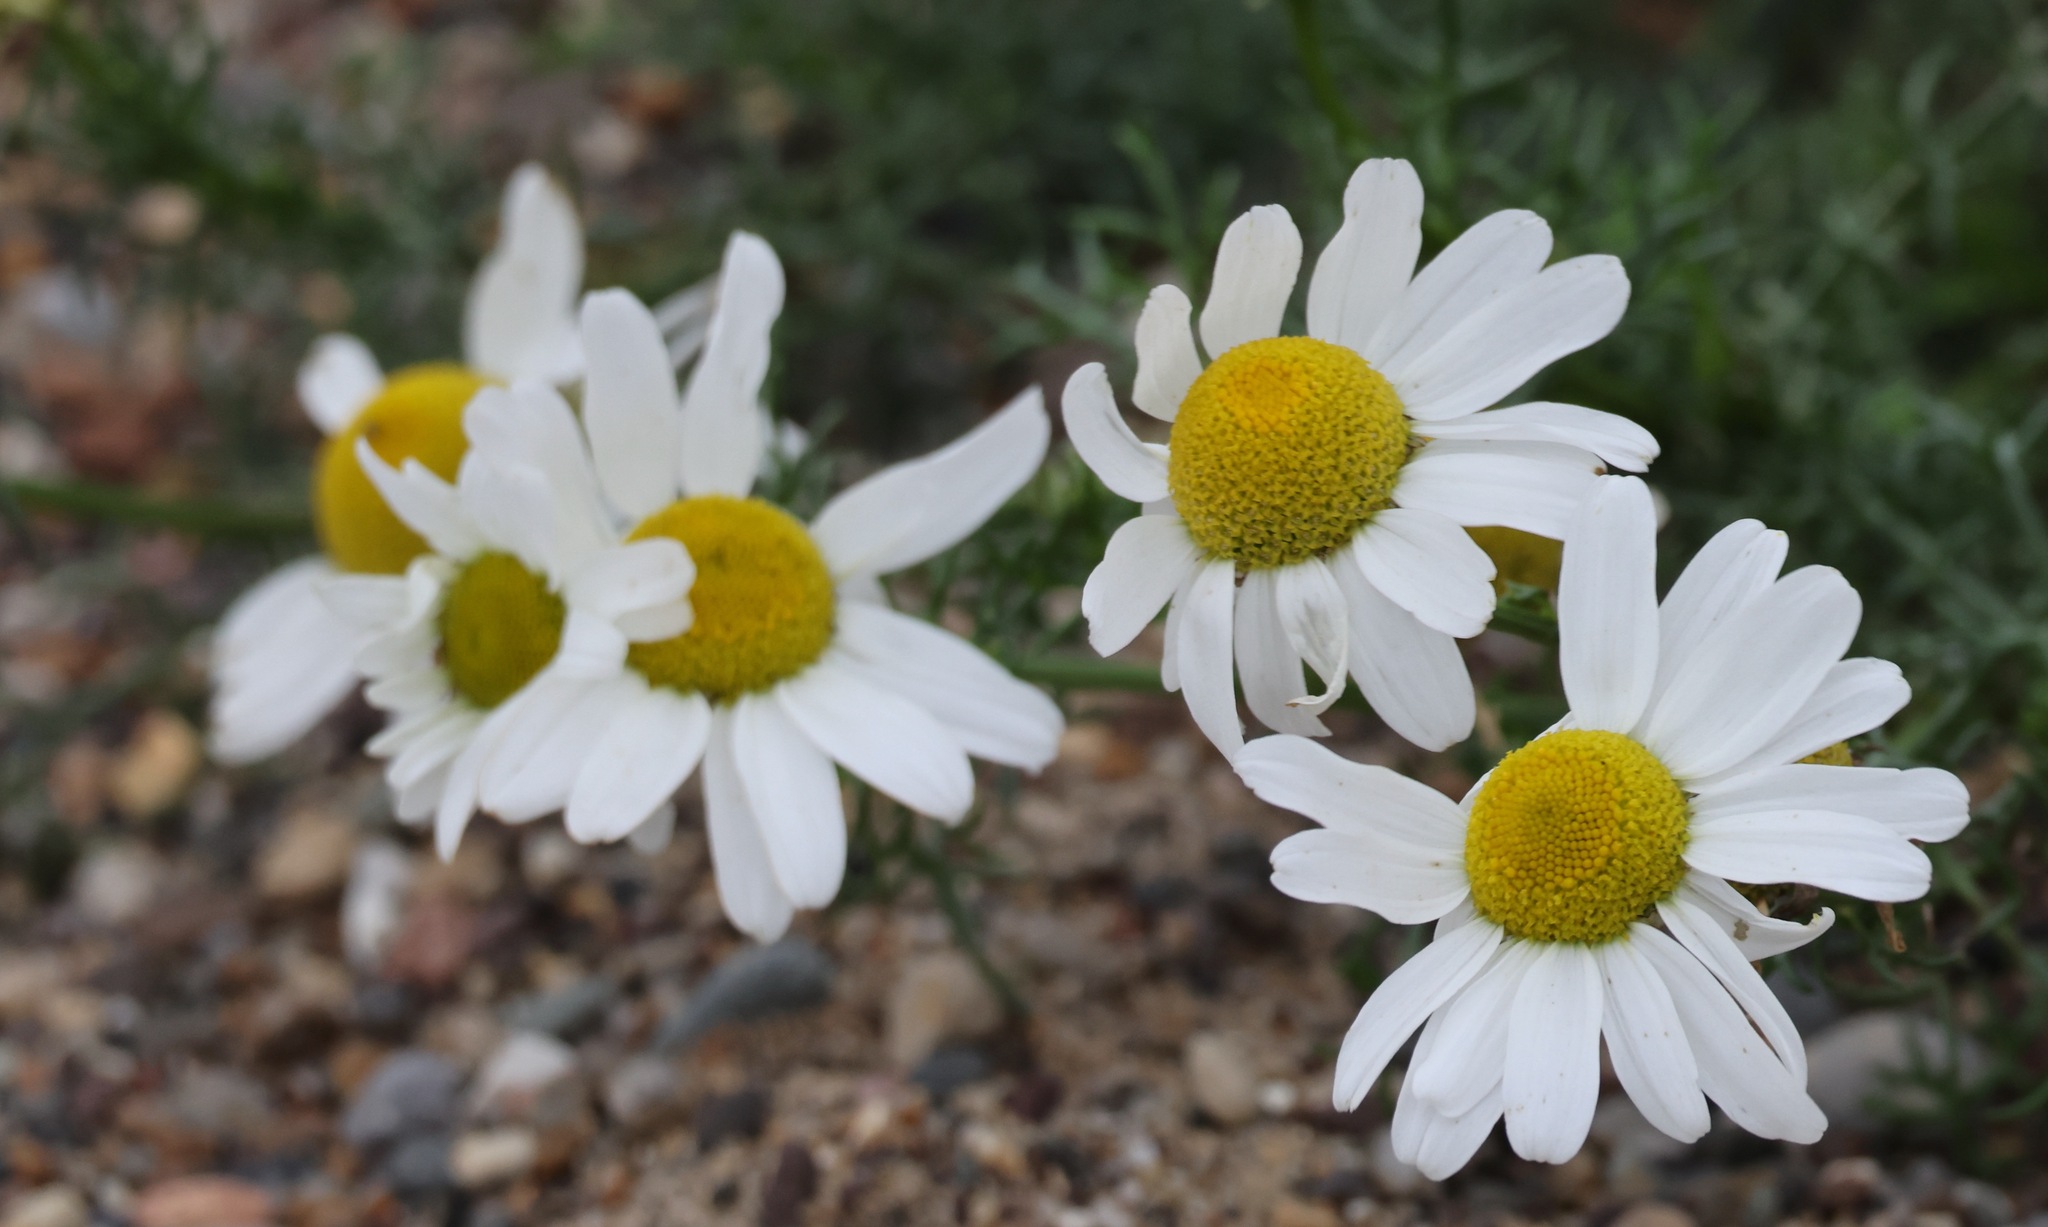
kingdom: Plantae
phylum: Tracheophyta
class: Magnoliopsida
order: Asterales
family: Asteraceae
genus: Tripleurospermum
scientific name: Tripleurospermum maritimum
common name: Sea mayweed
